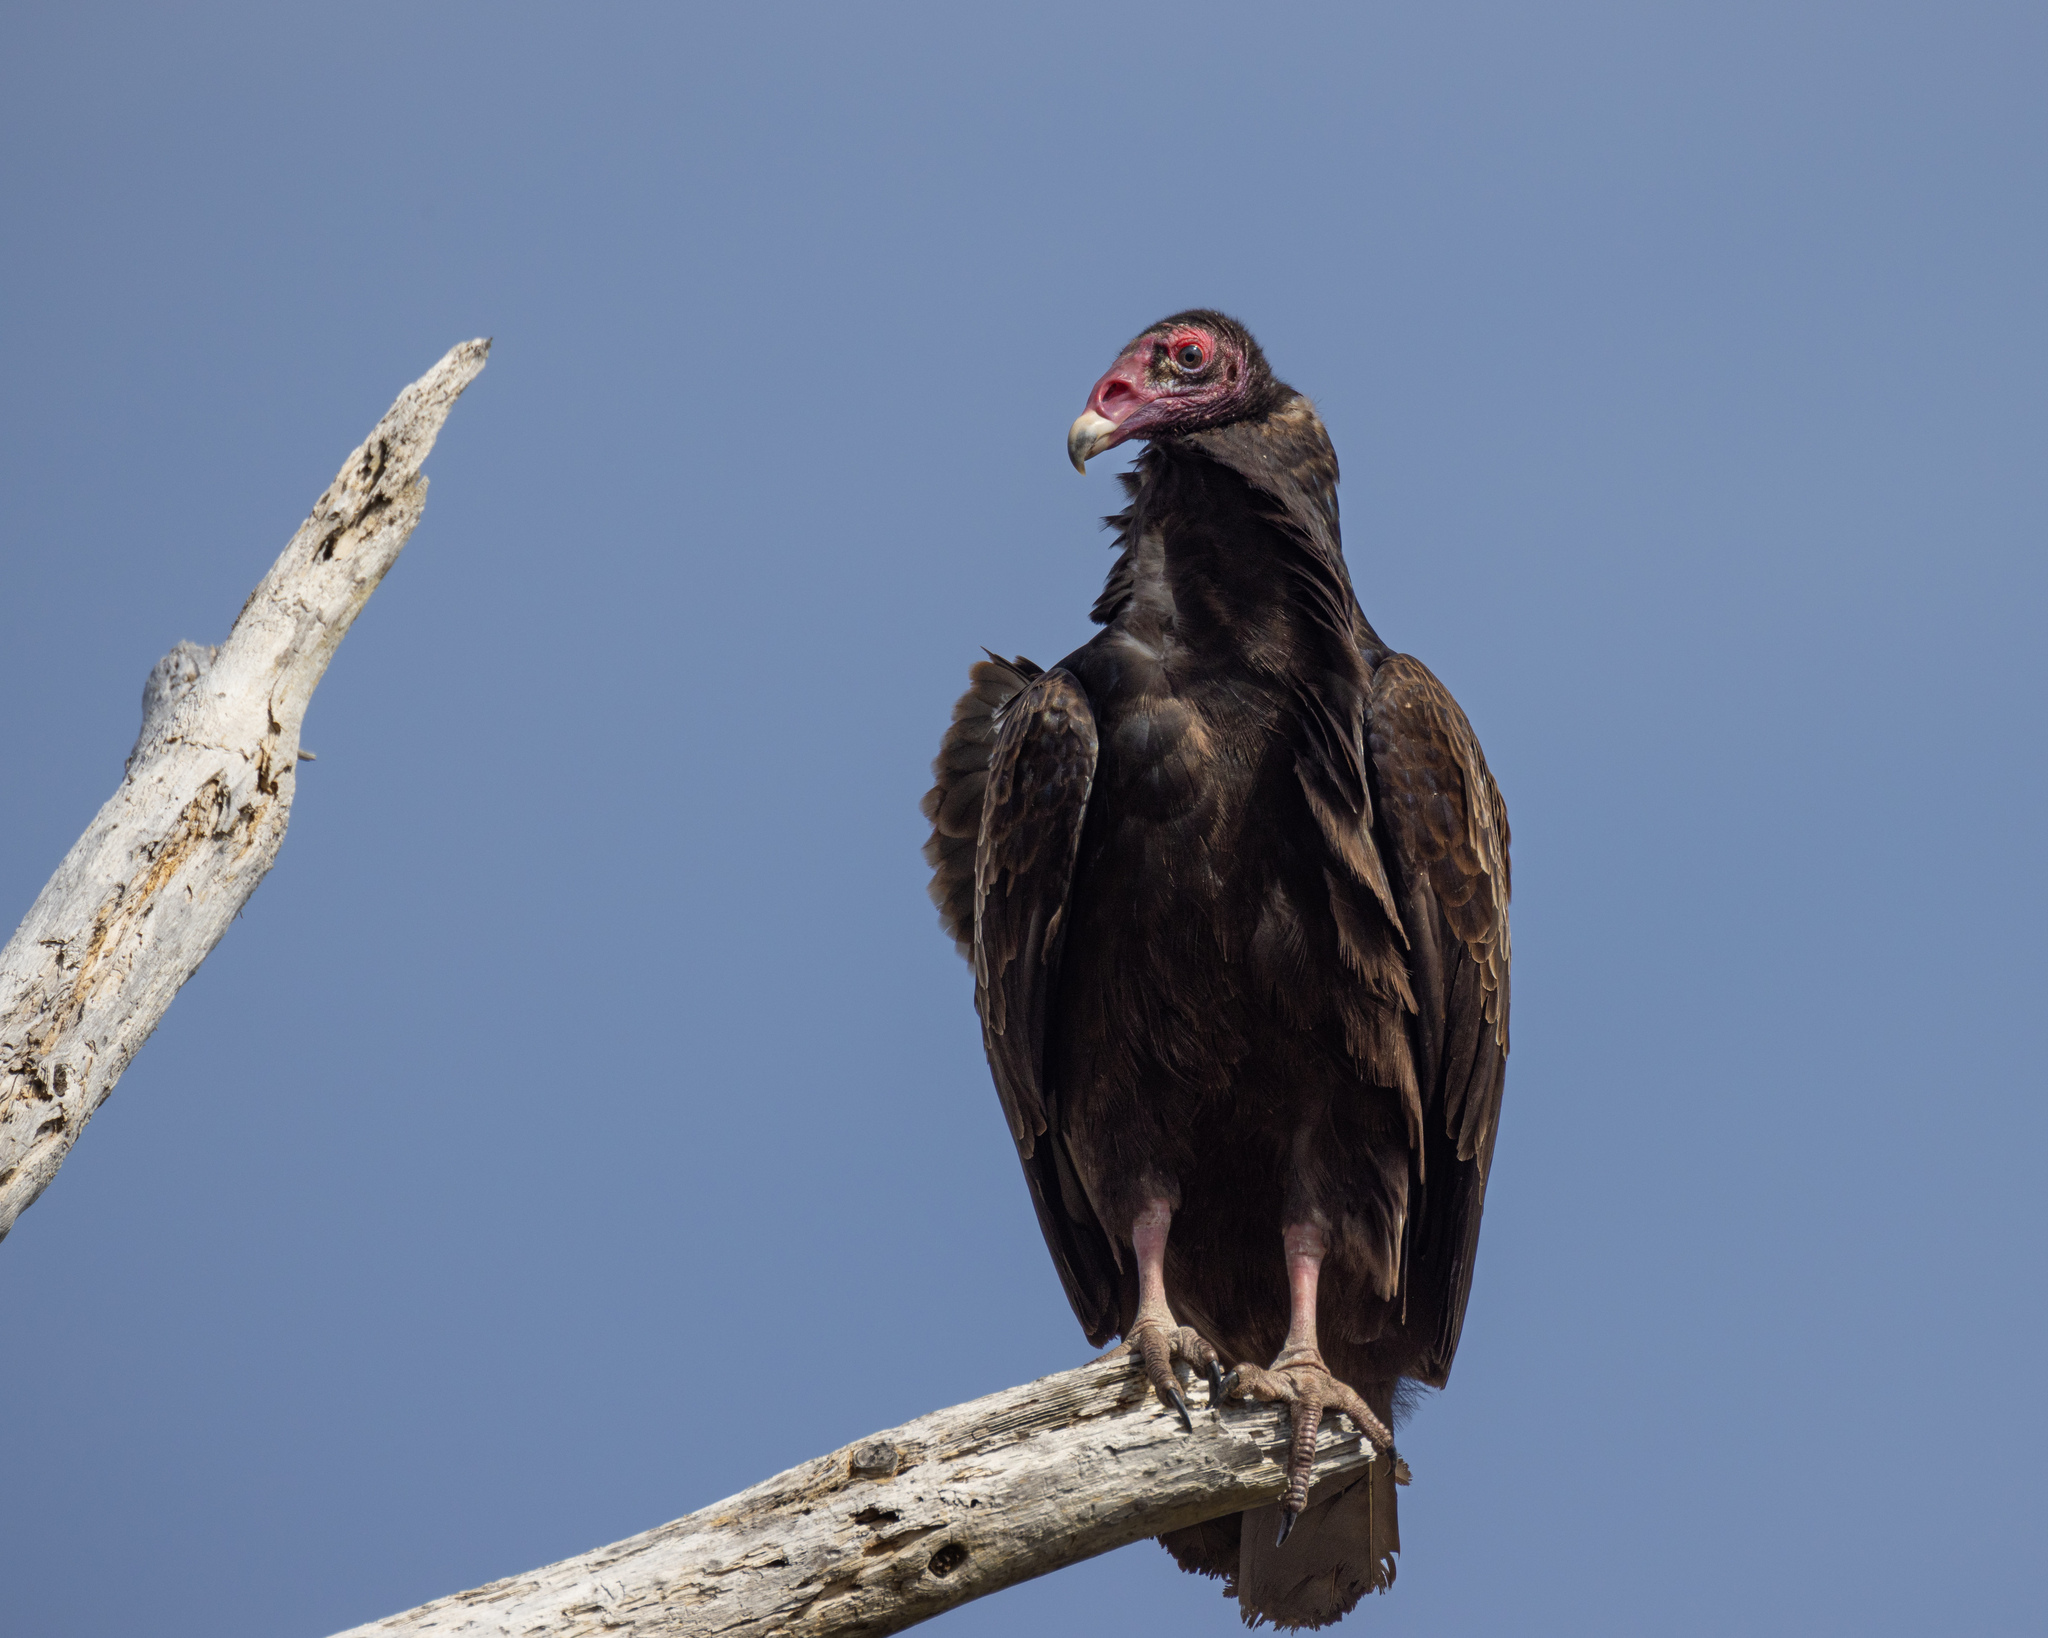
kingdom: Animalia
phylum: Chordata
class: Aves
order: Accipitriformes
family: Cathartidae
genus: Cathartes
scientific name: Cathartes aura
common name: Turkey vulture
